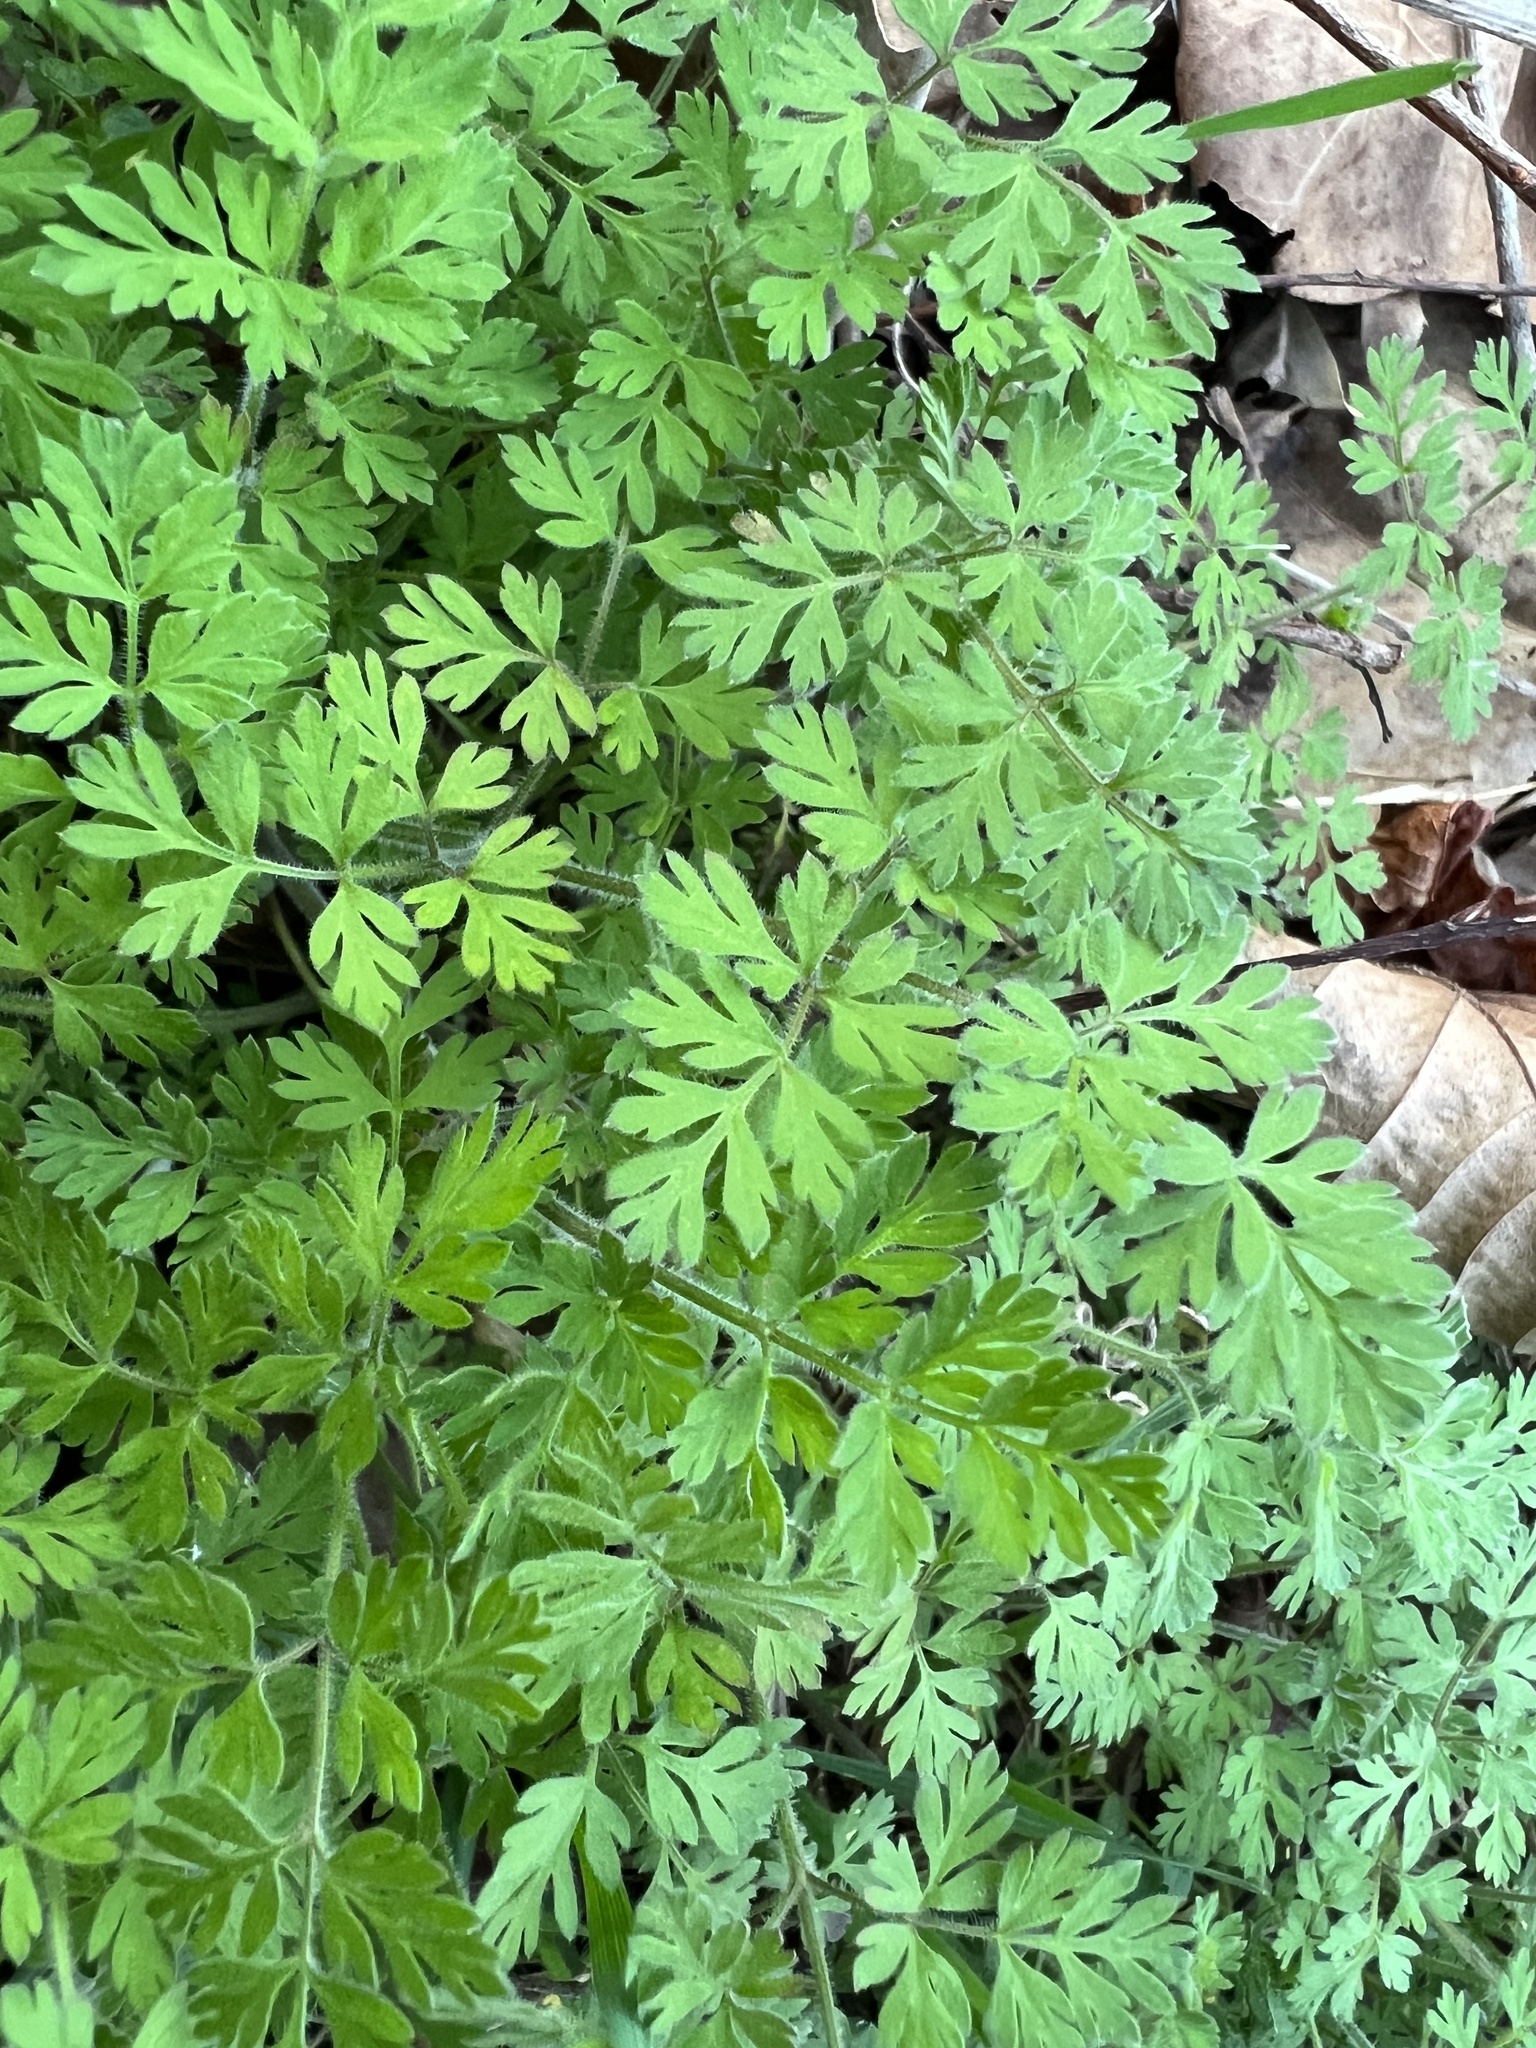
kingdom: Plantae
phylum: Tracheophyta
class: Magnoliopsida
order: Apiales
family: Apiaceae
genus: Chaerophyllum
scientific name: Chaerophyllum procumbens
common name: Spreading chervil
